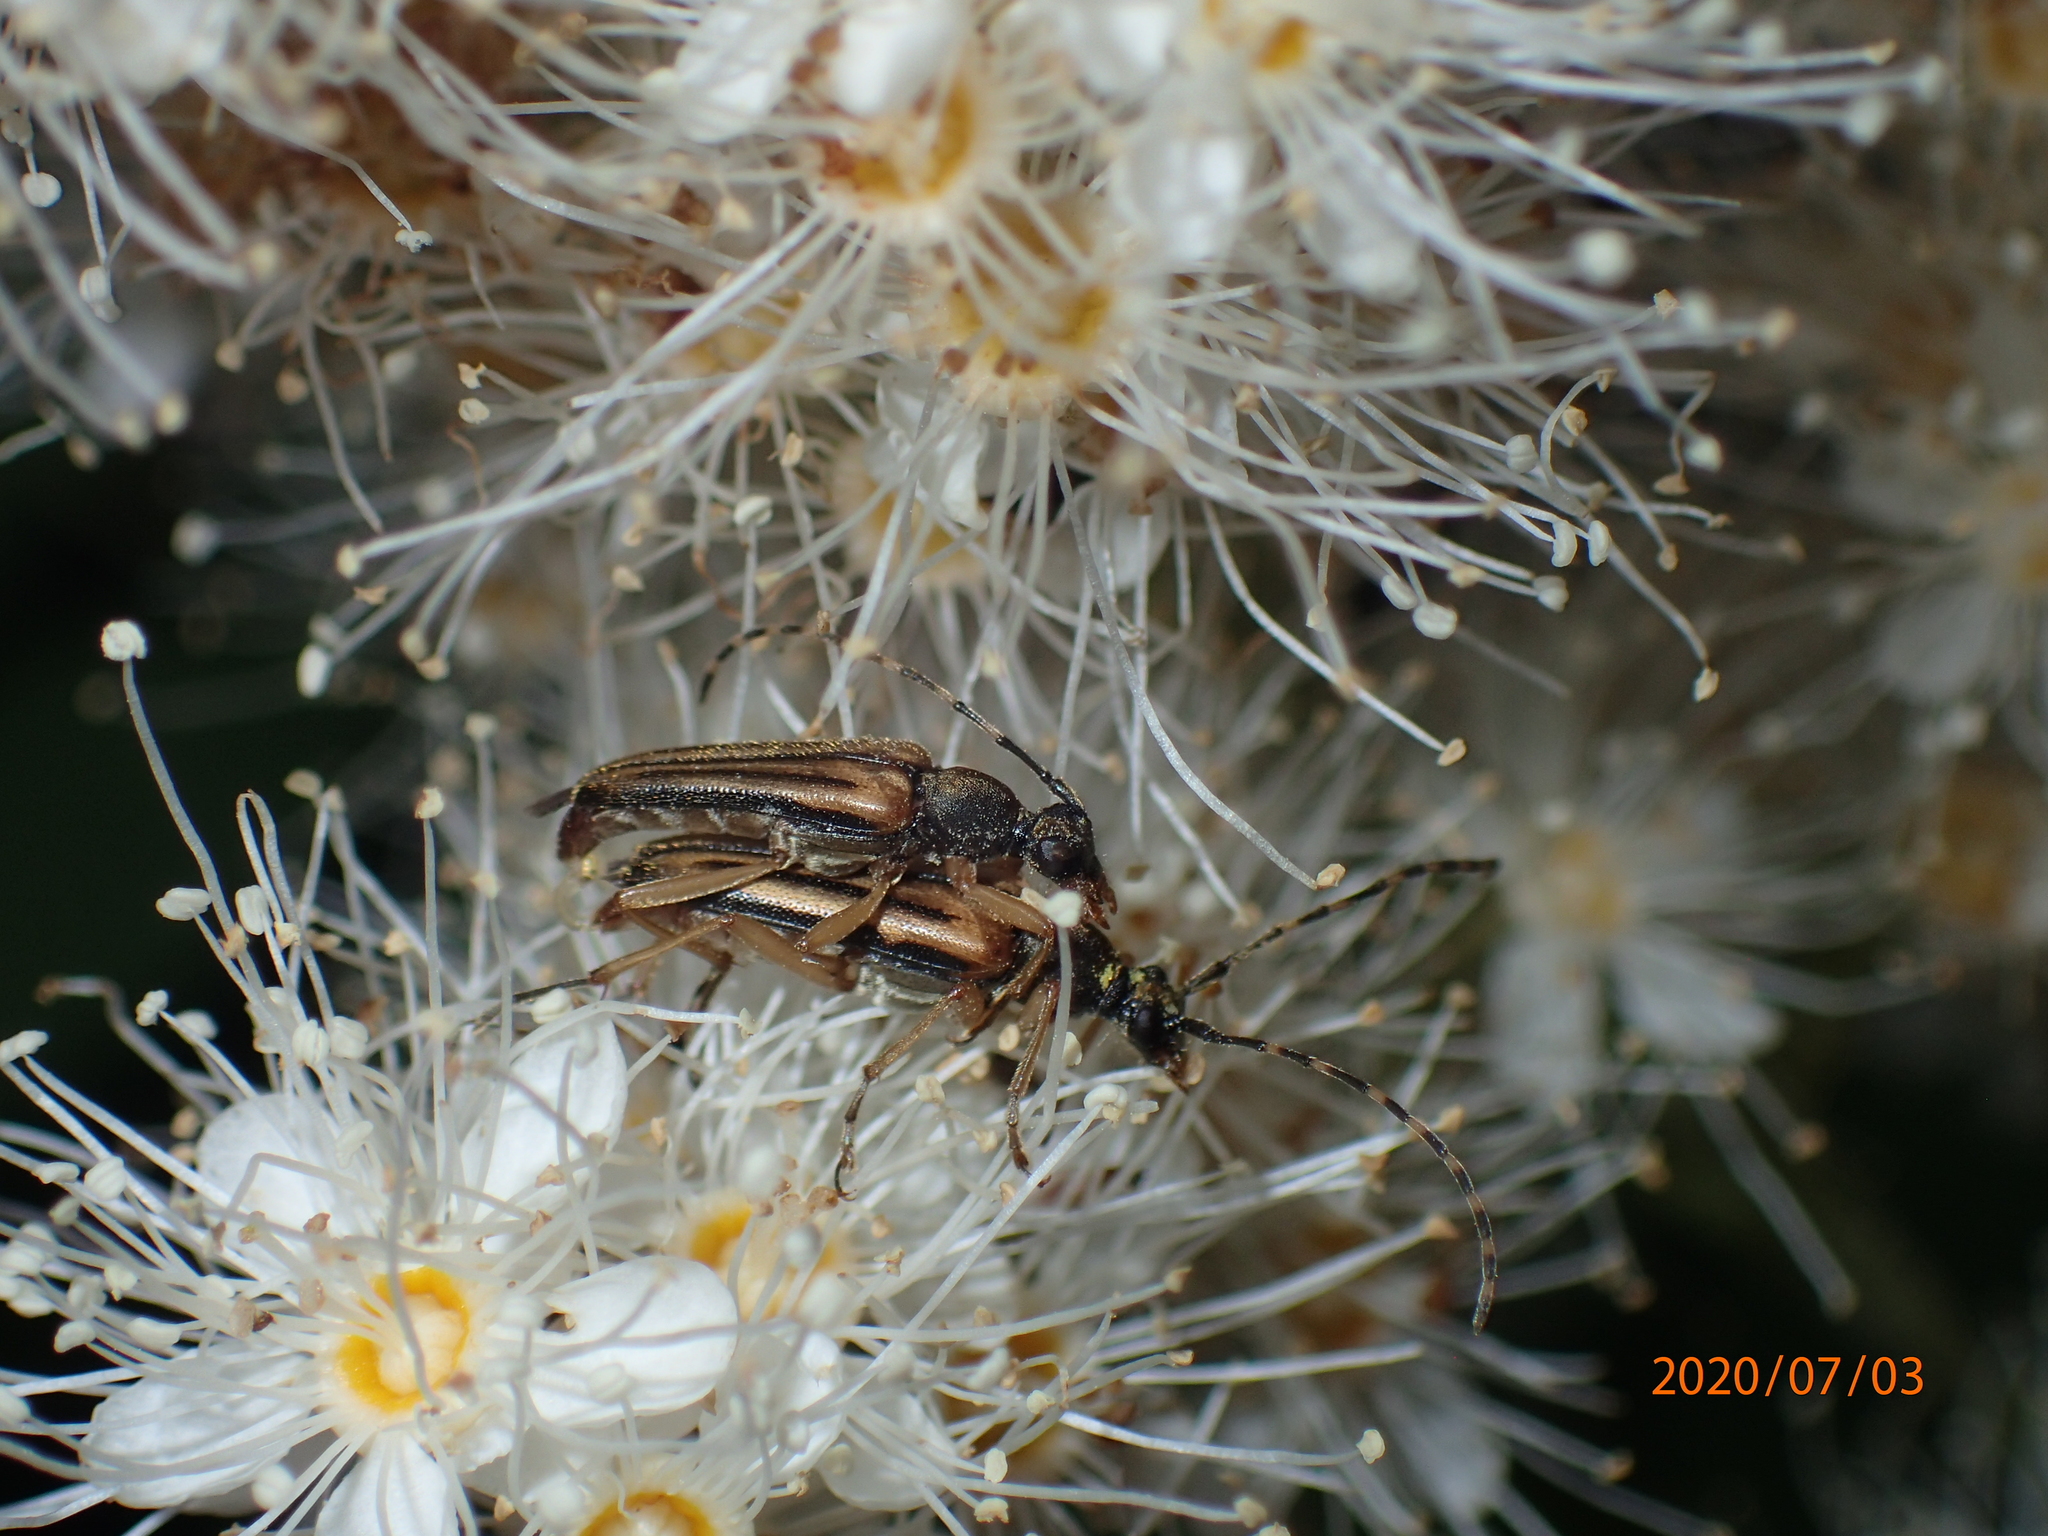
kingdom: Animalia
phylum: Arthropoda
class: Insecta
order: Coleoptera
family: Cerambycidae
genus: Analeptura
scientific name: Analeptura lineola
